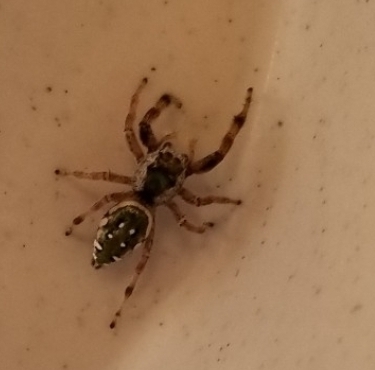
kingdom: Animalia
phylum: Arthropoda
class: Arachnida
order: Araneae
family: Salticidae
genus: Paraphidippus
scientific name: Paraphidippus aurantius
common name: Jumping spiders
